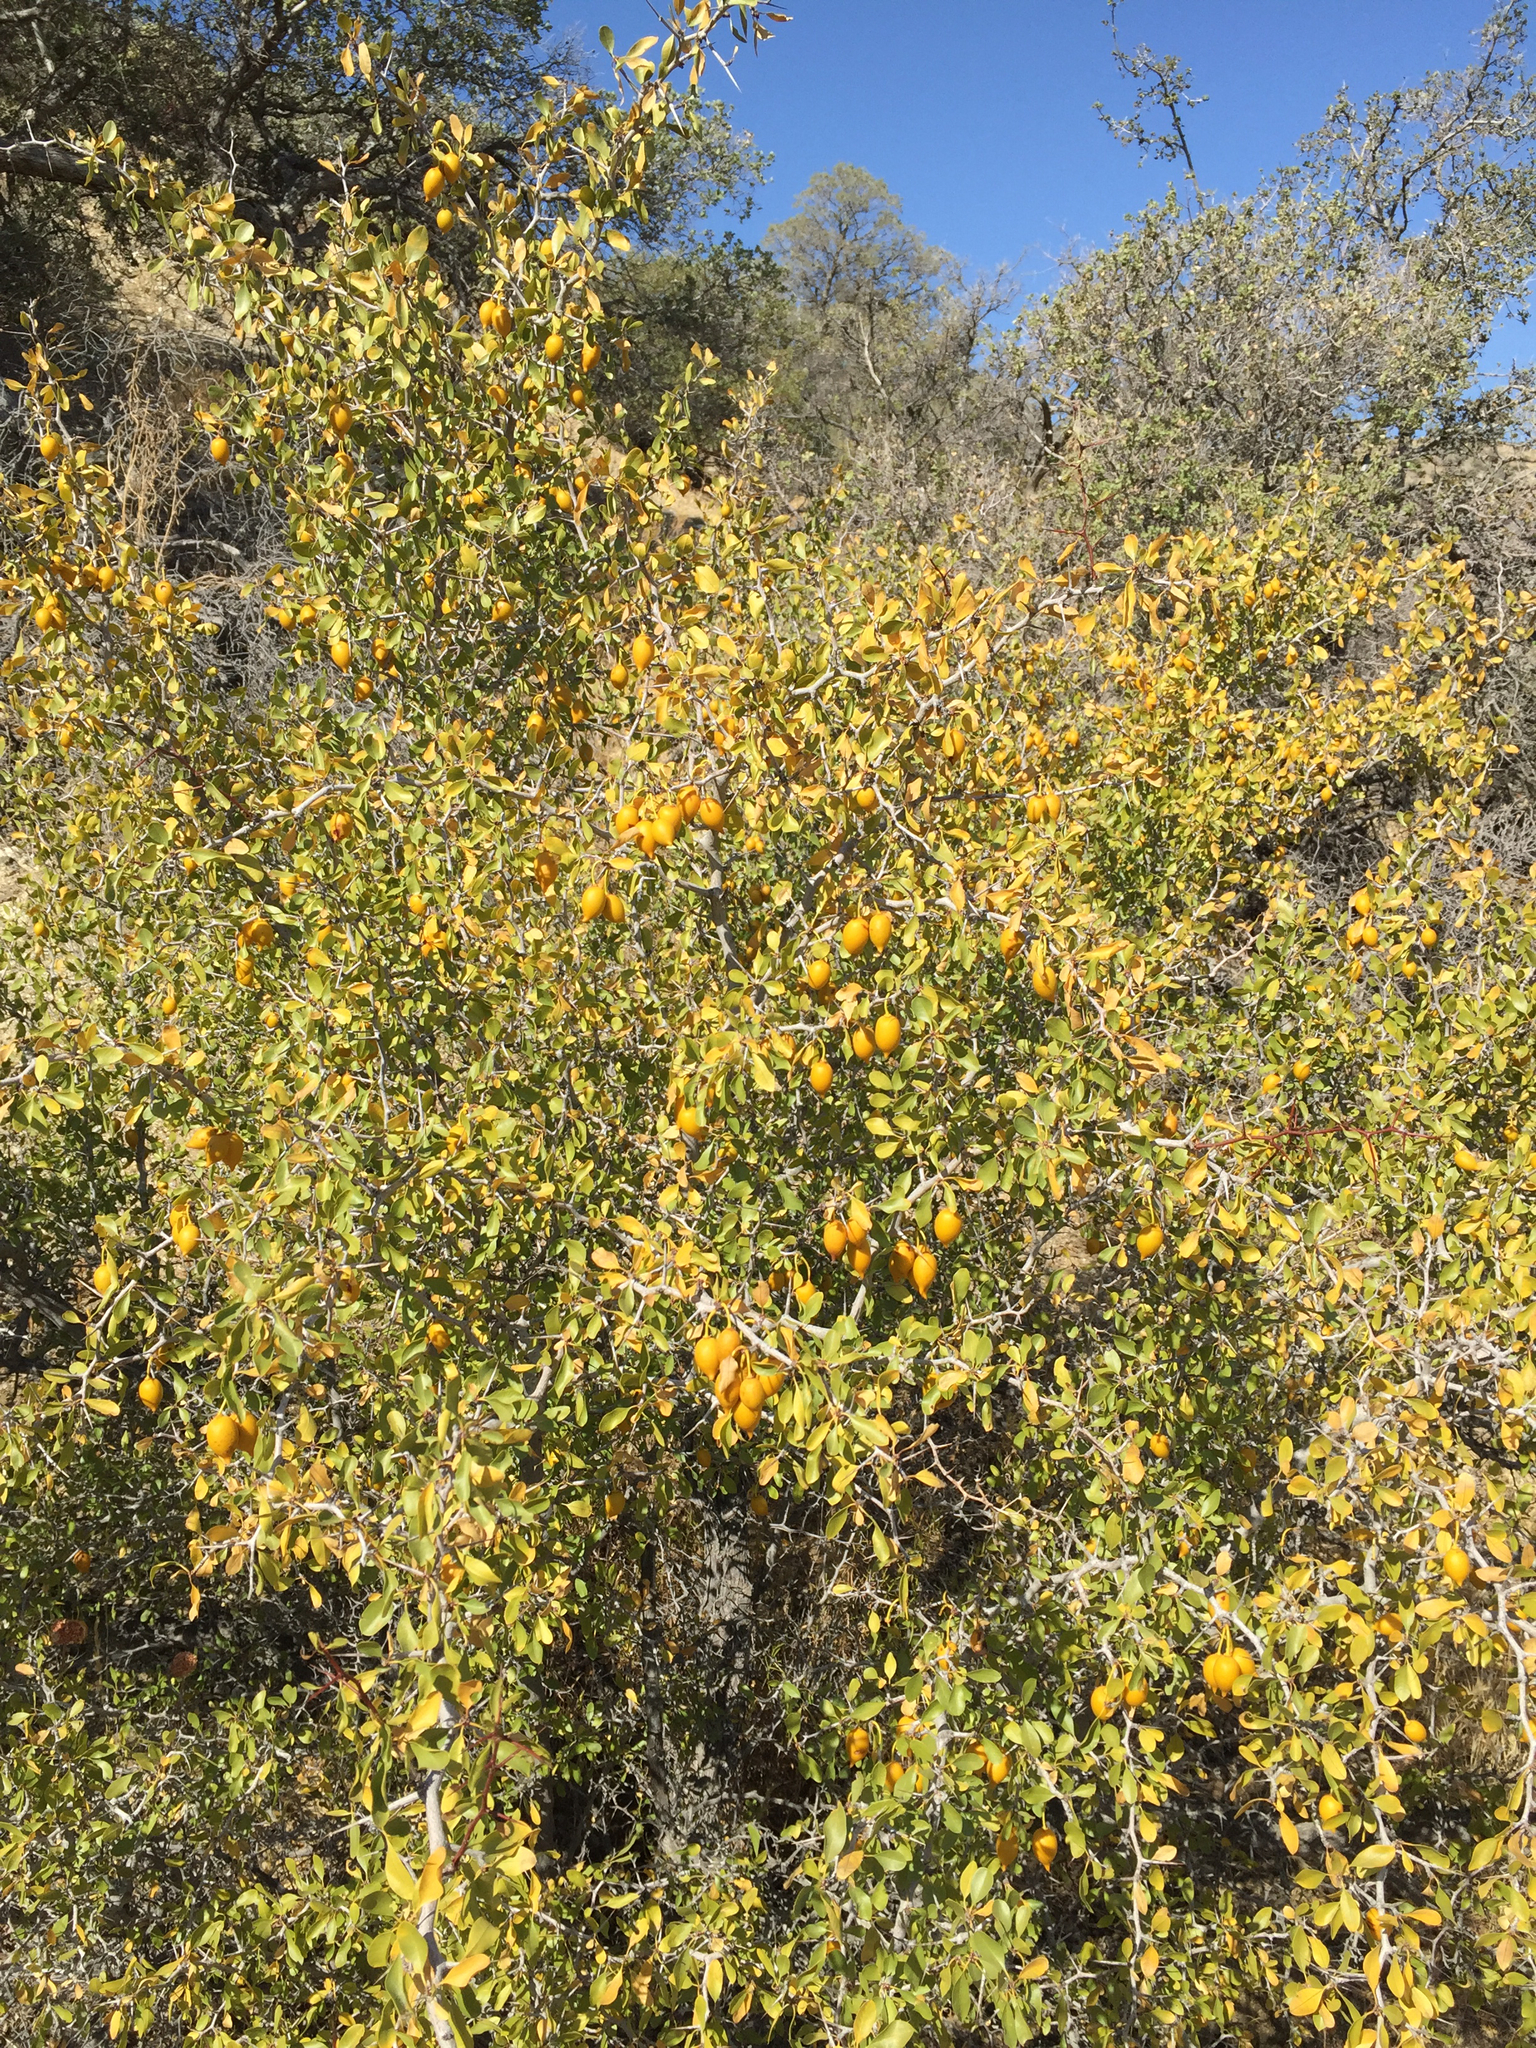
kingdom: Plantae
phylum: Tracheophyta
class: Magnoliopsida
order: Rosales
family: Rhamnaceae
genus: Pseudoziziphus
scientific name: Pseudoziziphus parryi
